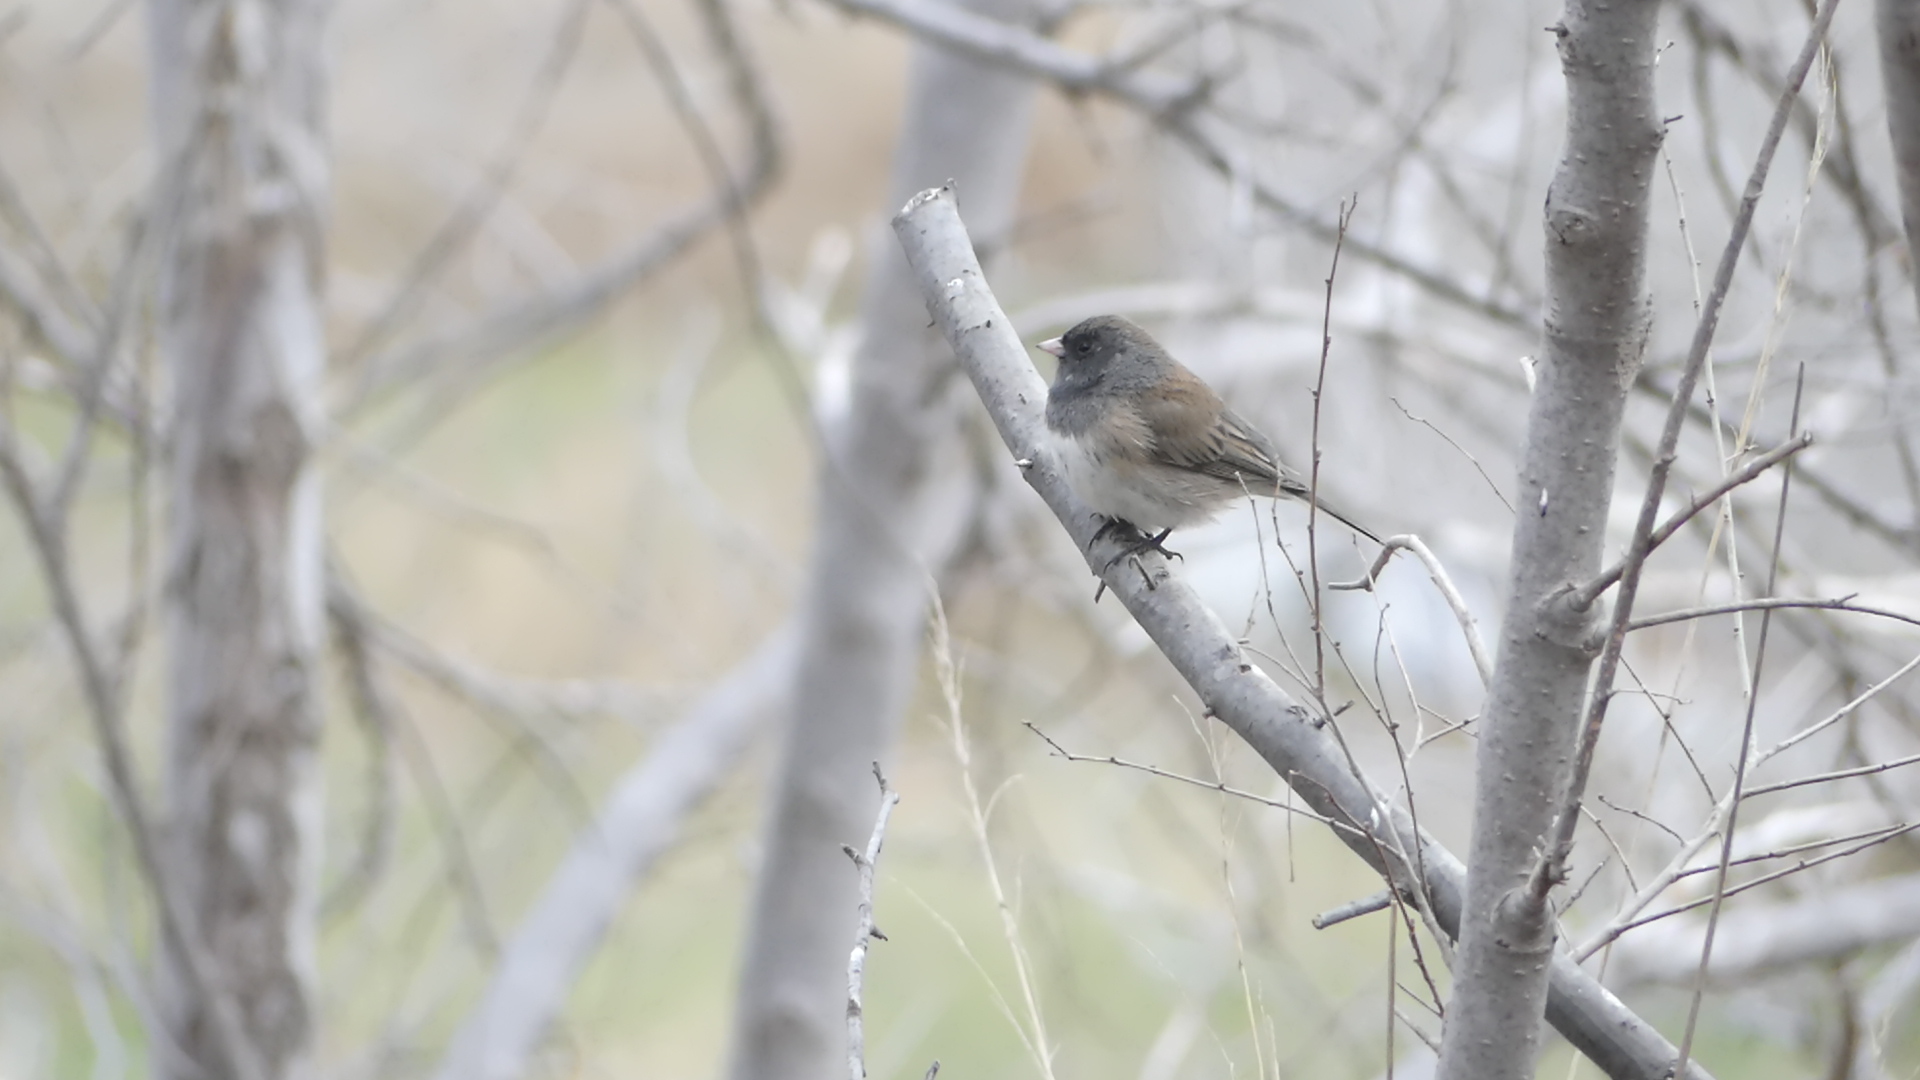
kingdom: Animalia
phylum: Chordata
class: Aves
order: Passeriformes
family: Passerellidae
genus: Junco
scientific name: Junco hyemalis
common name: Dark-eyed junco
